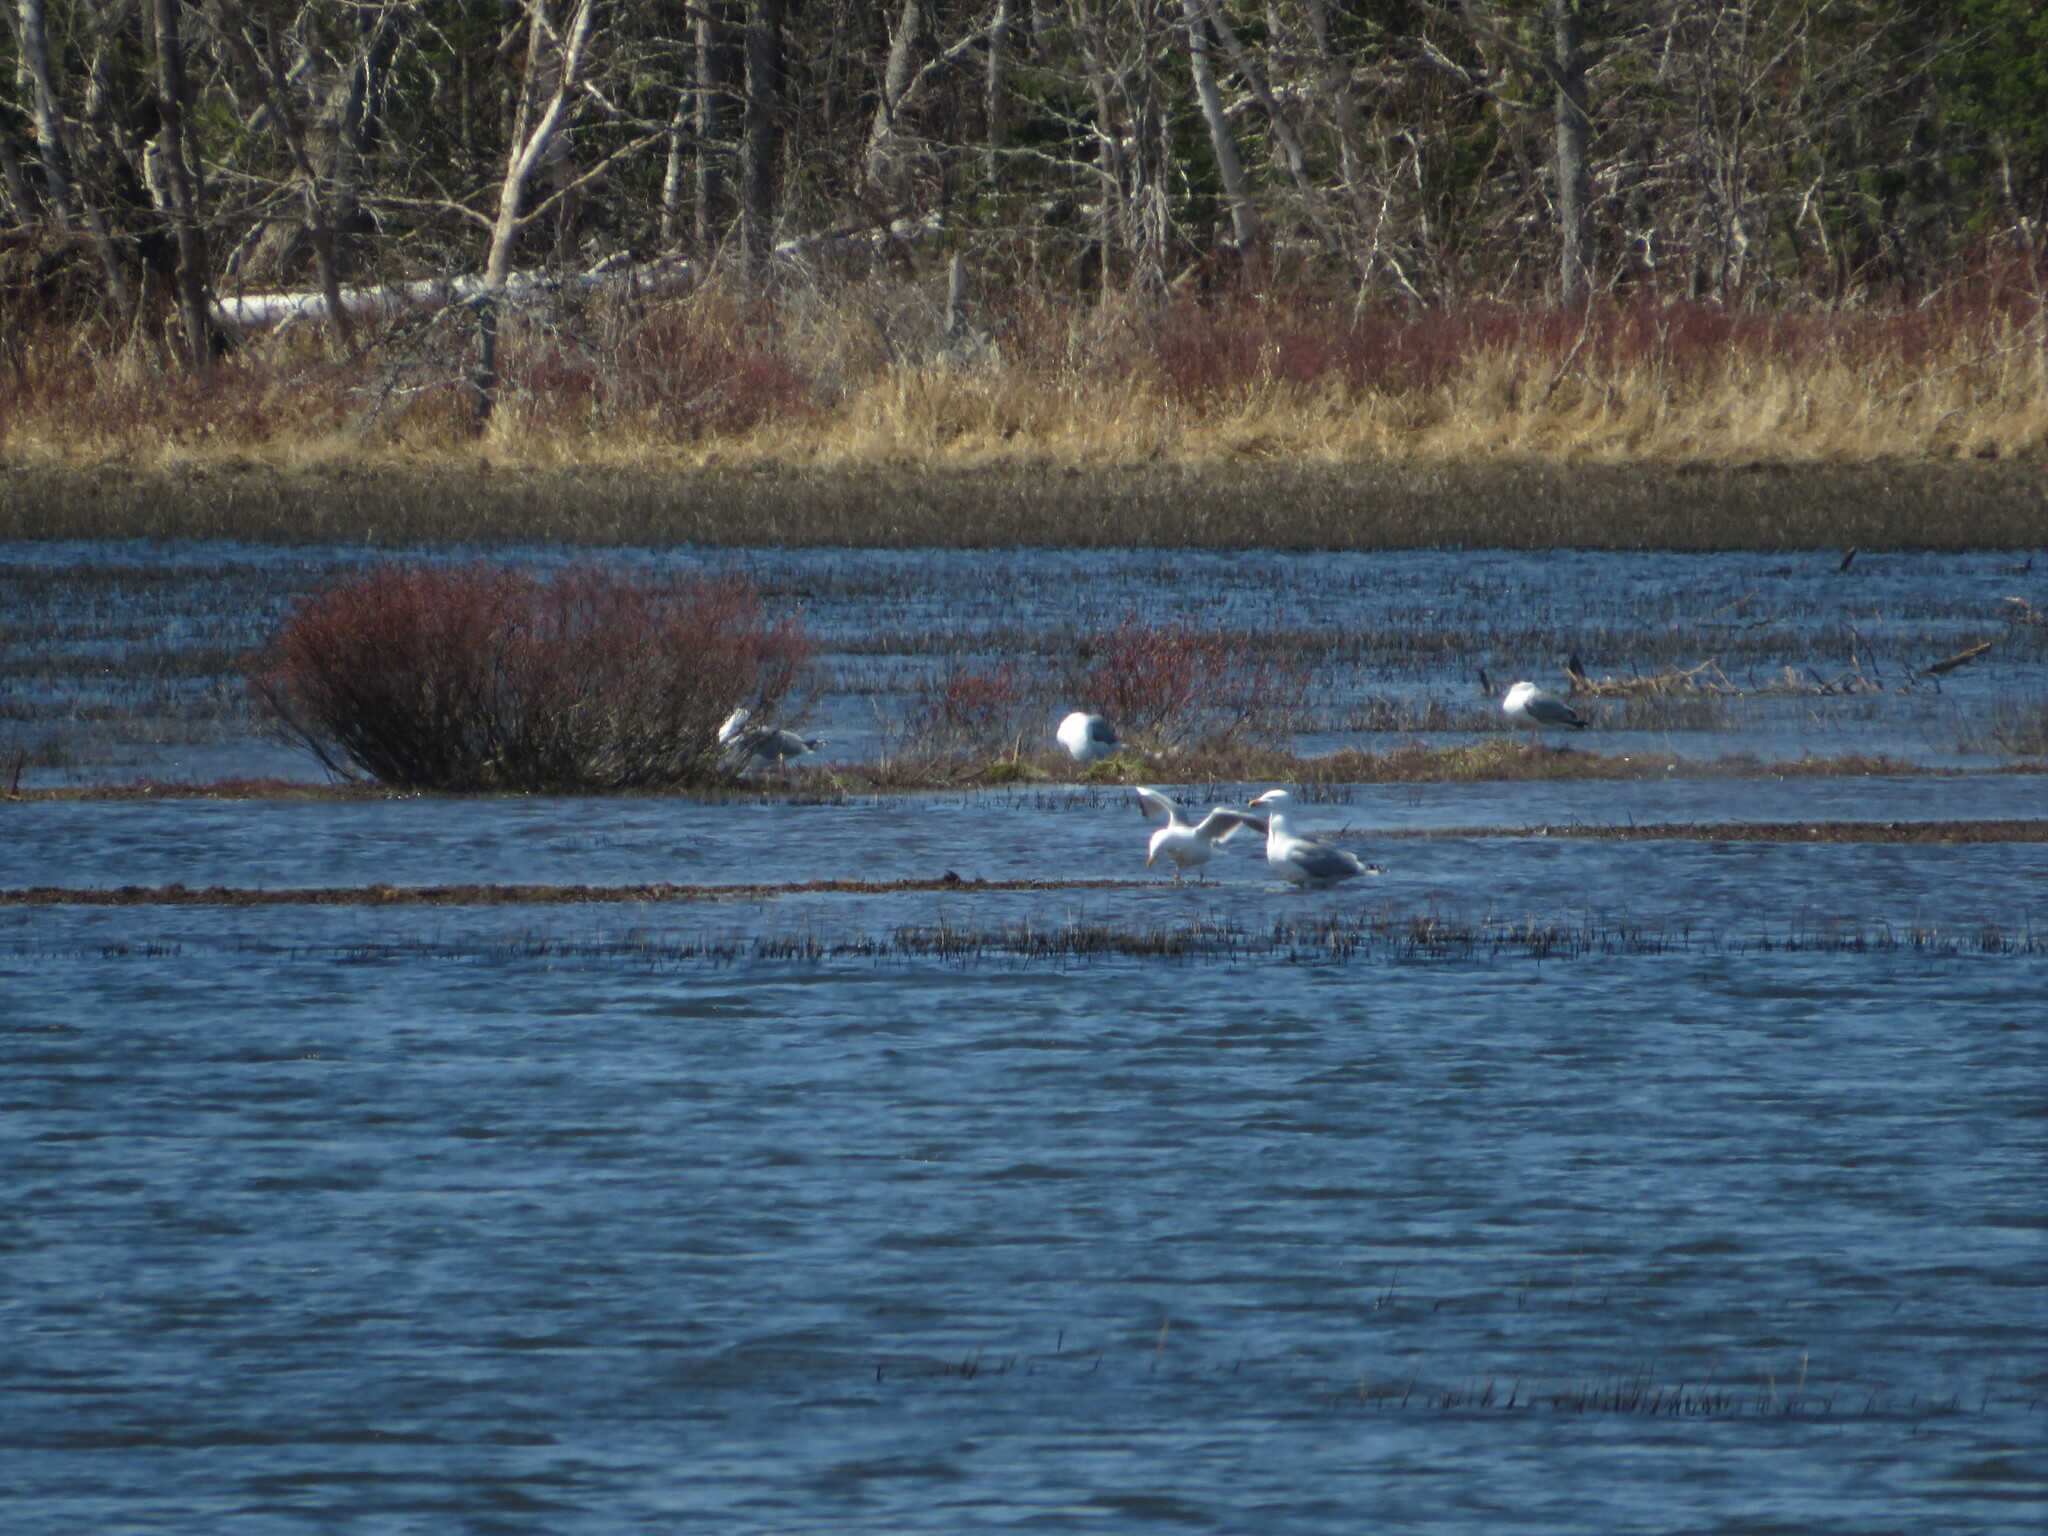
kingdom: Animalia
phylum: Chordata
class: Aves
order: Charadriiformes
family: Laridae
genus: Larus
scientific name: Larus argentatus
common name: Herring gull
